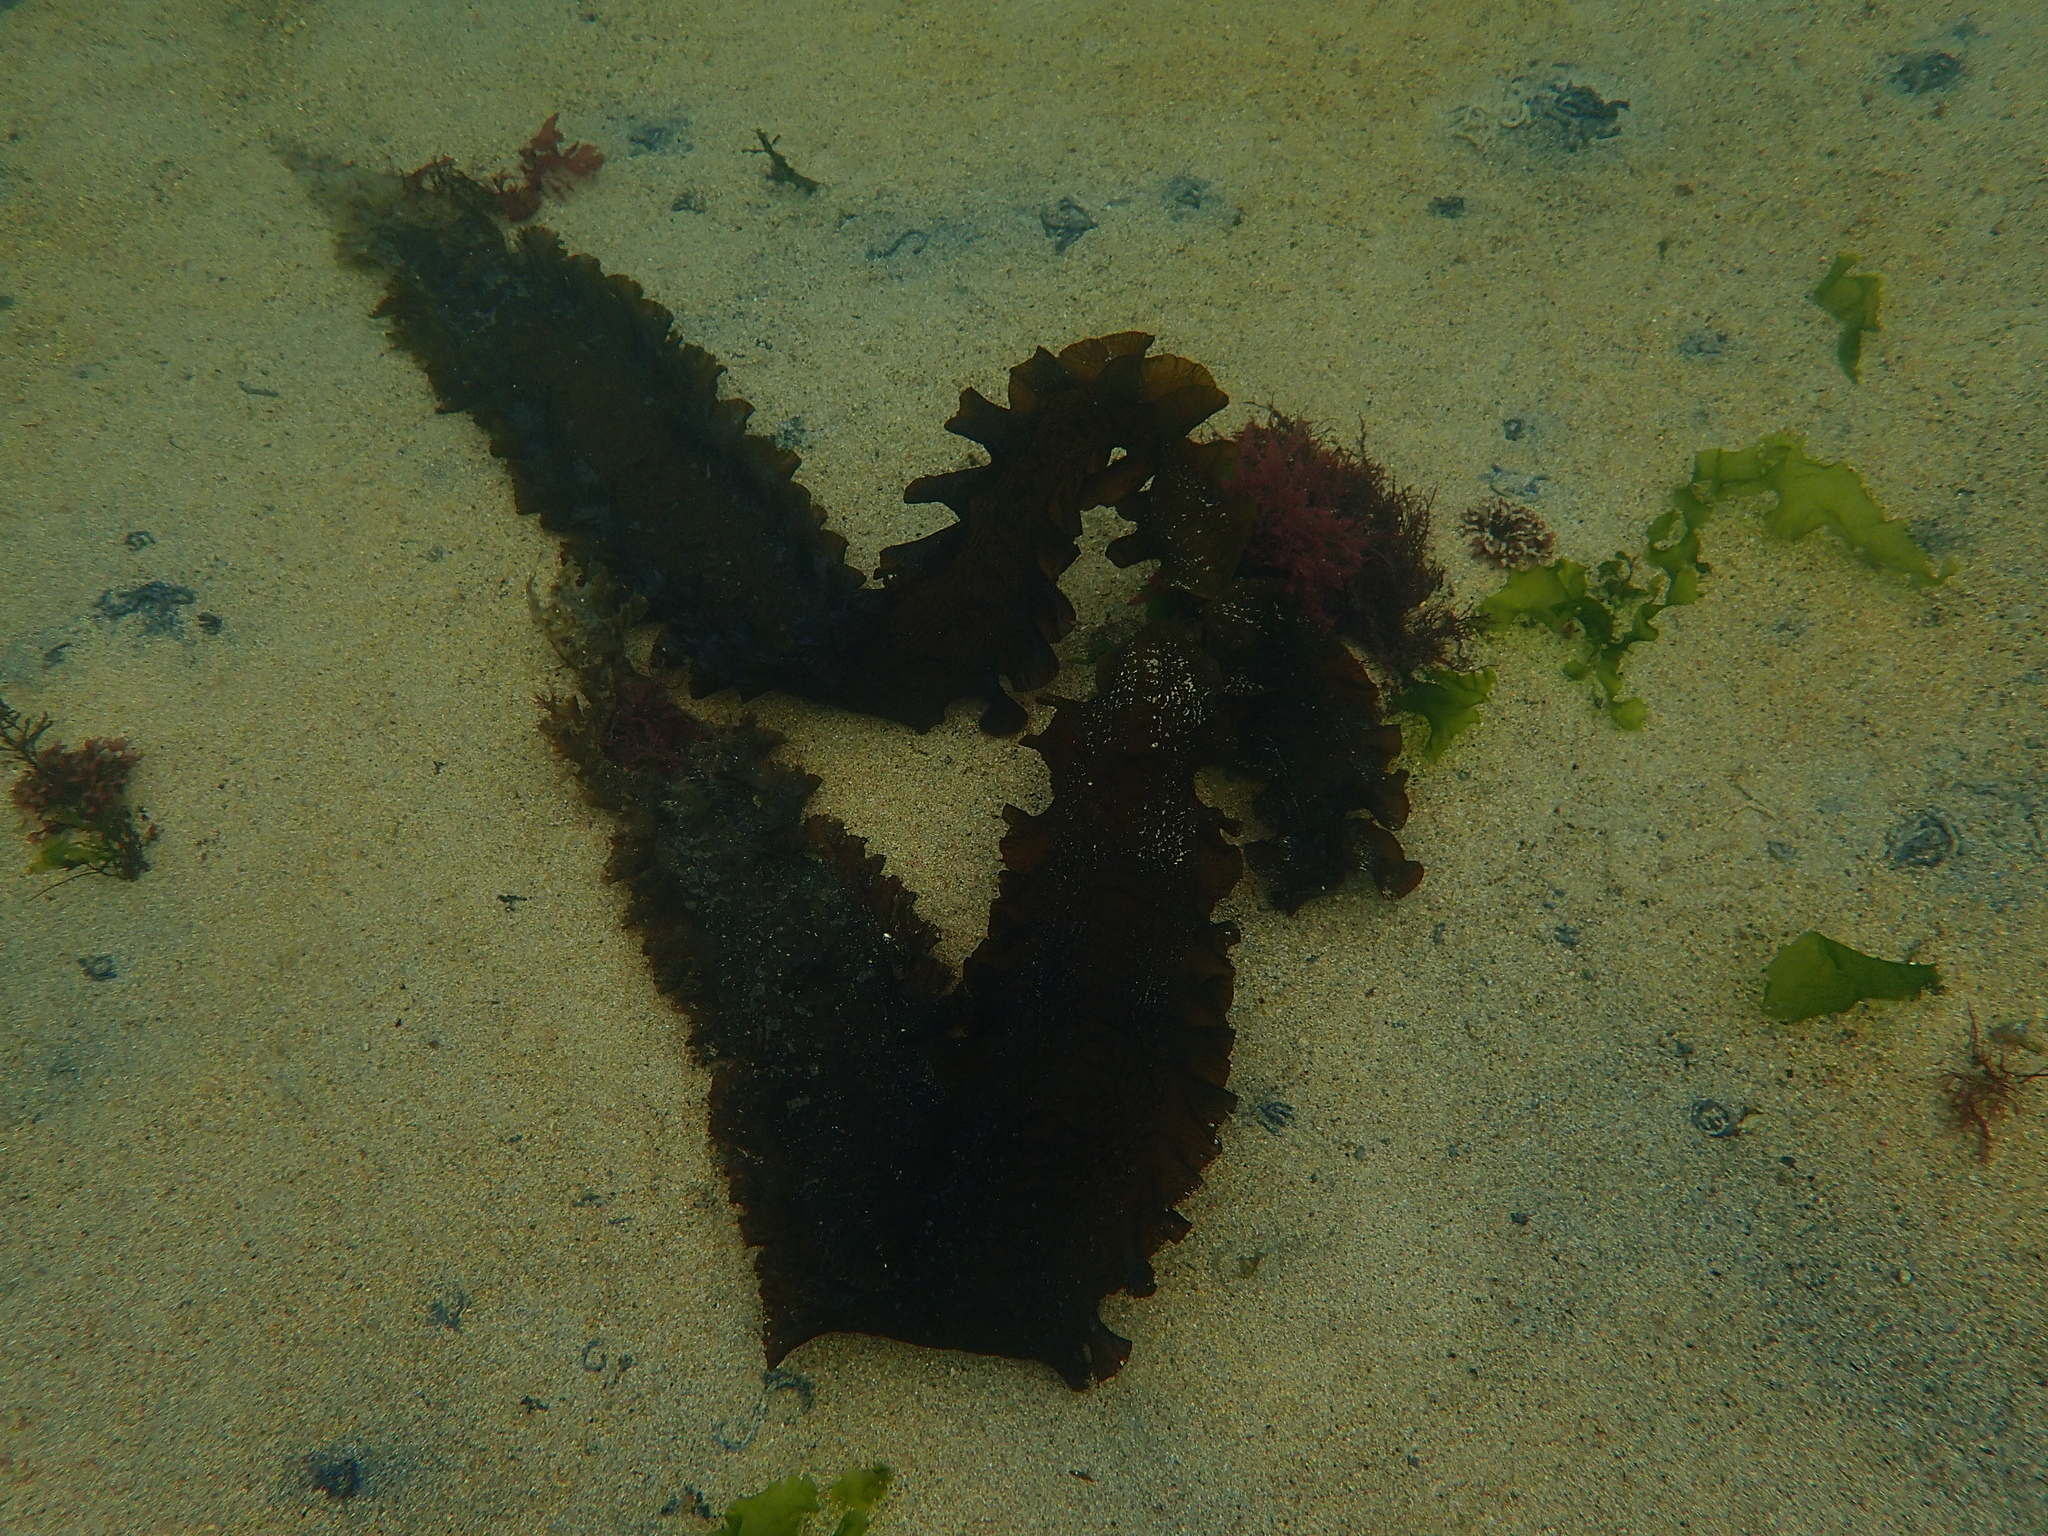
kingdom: Chromista
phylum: Ochrophyta
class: Phaeophyceae
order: Laminariales
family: Laminariaceae
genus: Saccharina
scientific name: Saccharina latissima
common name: Poor man's weather glass
